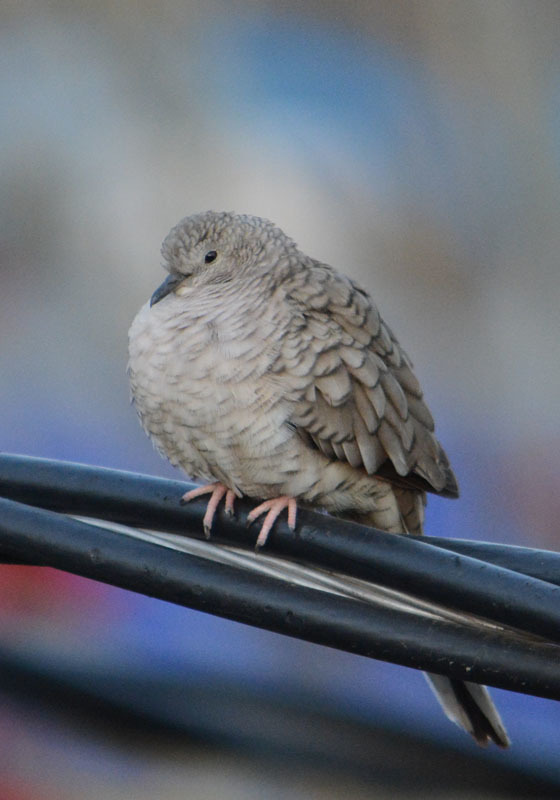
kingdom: Animalia
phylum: Chordata
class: Aves
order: Columbiformes
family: Columbidae
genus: Columbina
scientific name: Columbina inca
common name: Inca dove
